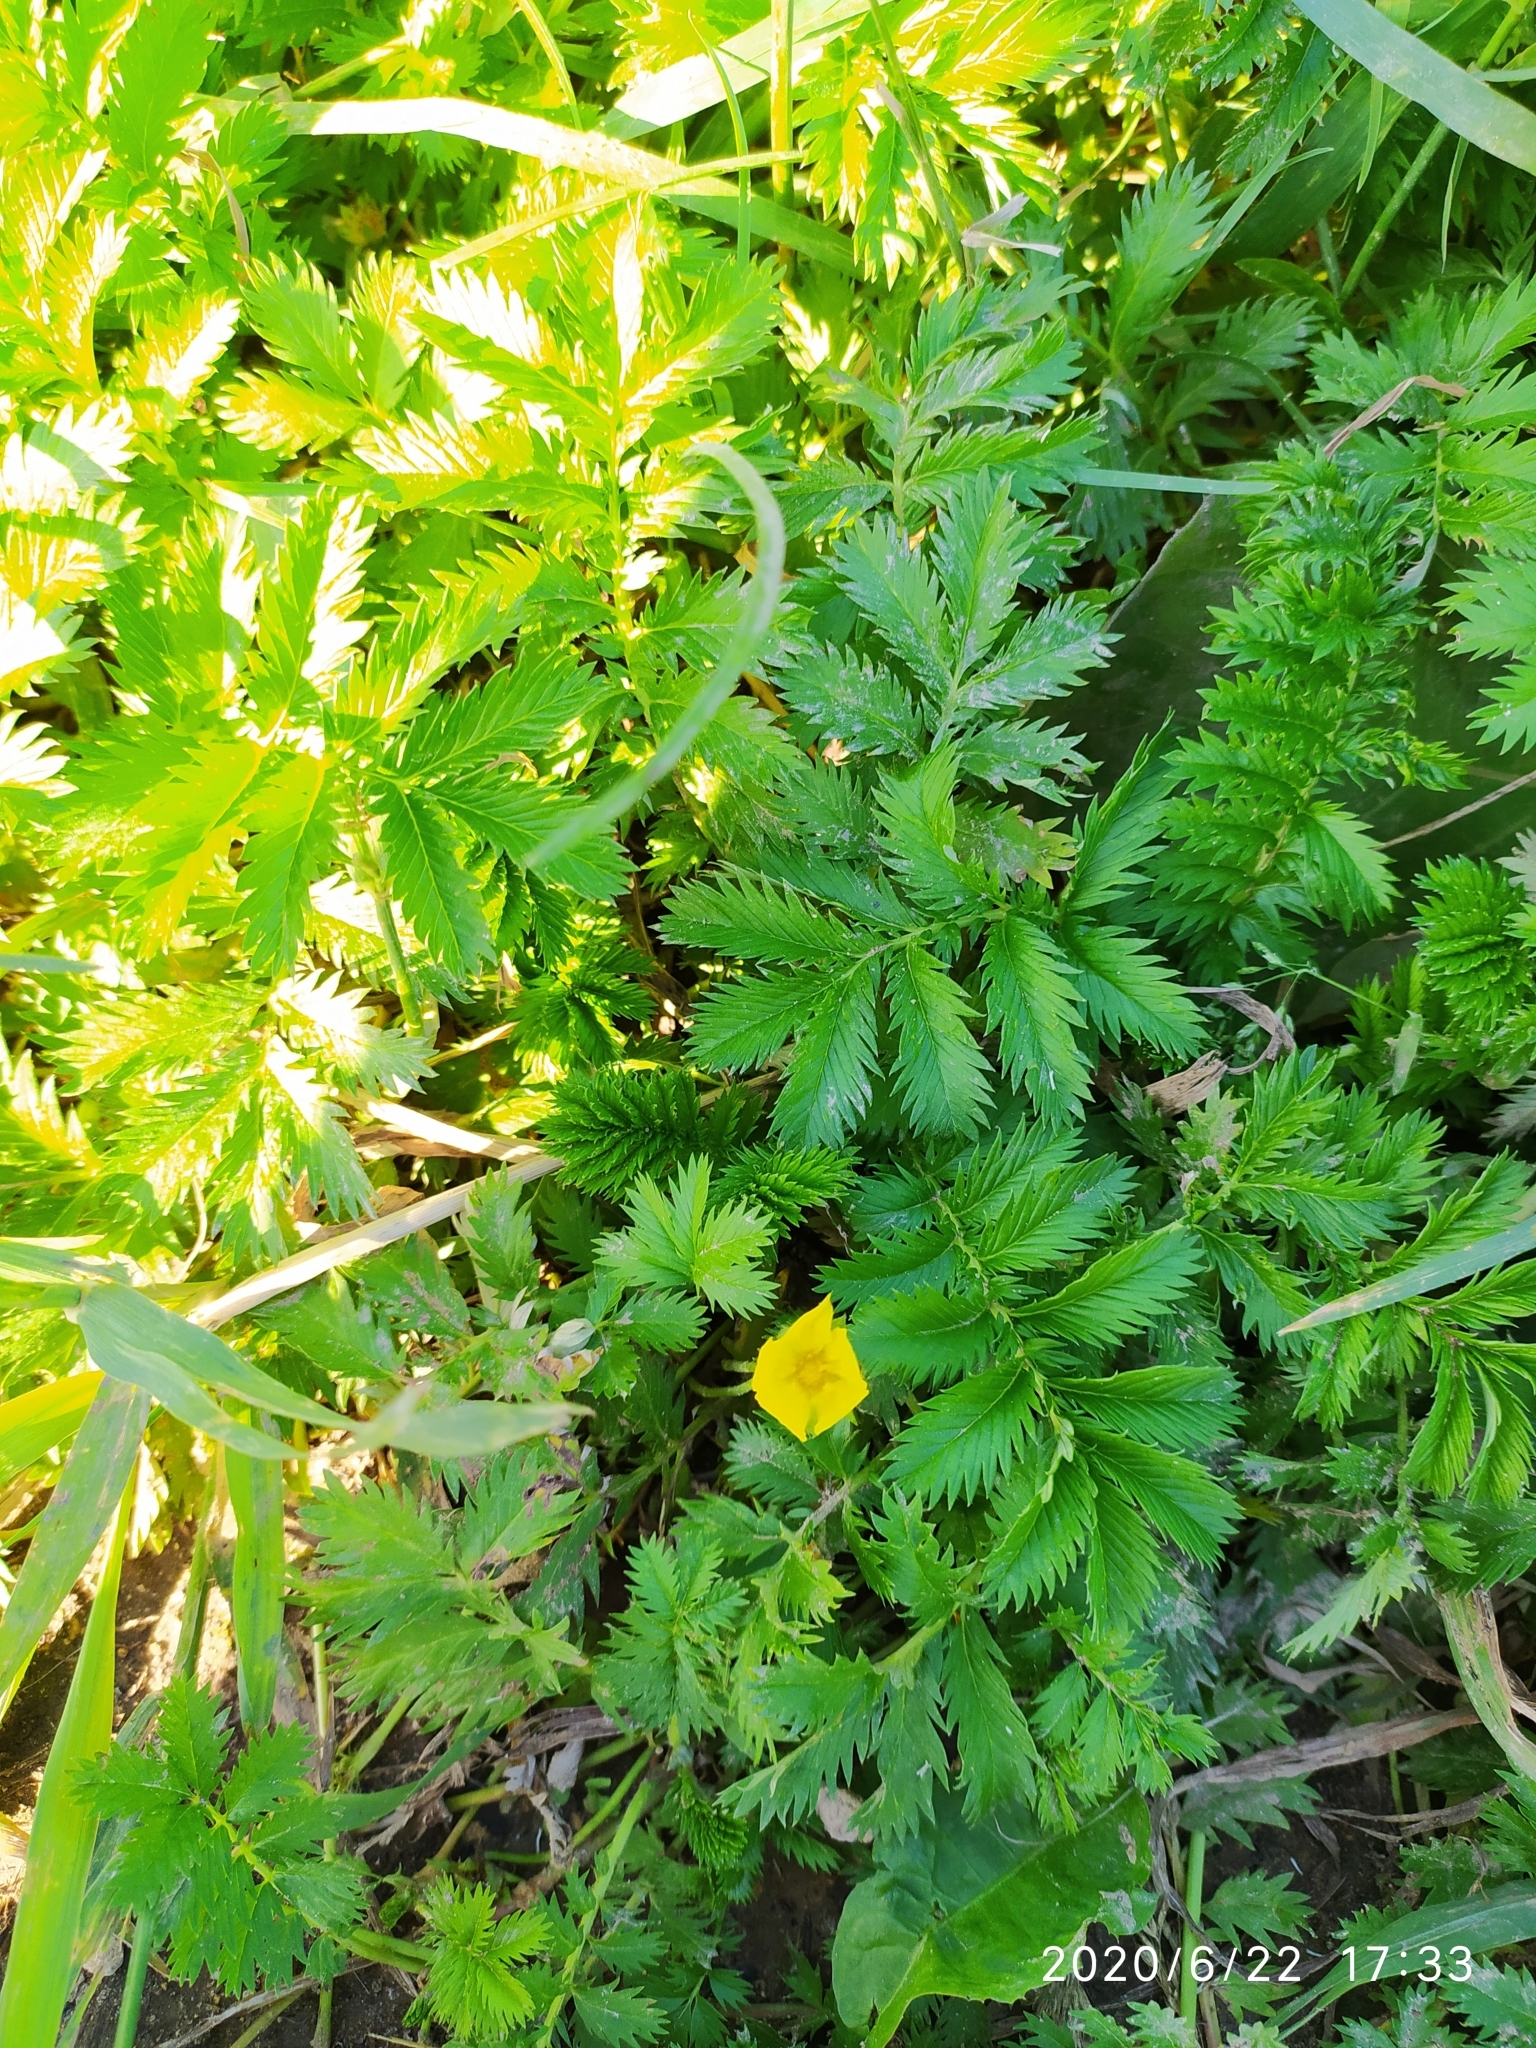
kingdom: Plantae
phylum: Tracheophyta
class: Magnoliopsida
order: Rosales
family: Rosaceae
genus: Argentina
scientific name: Argentina anserina
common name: Common silverweed
